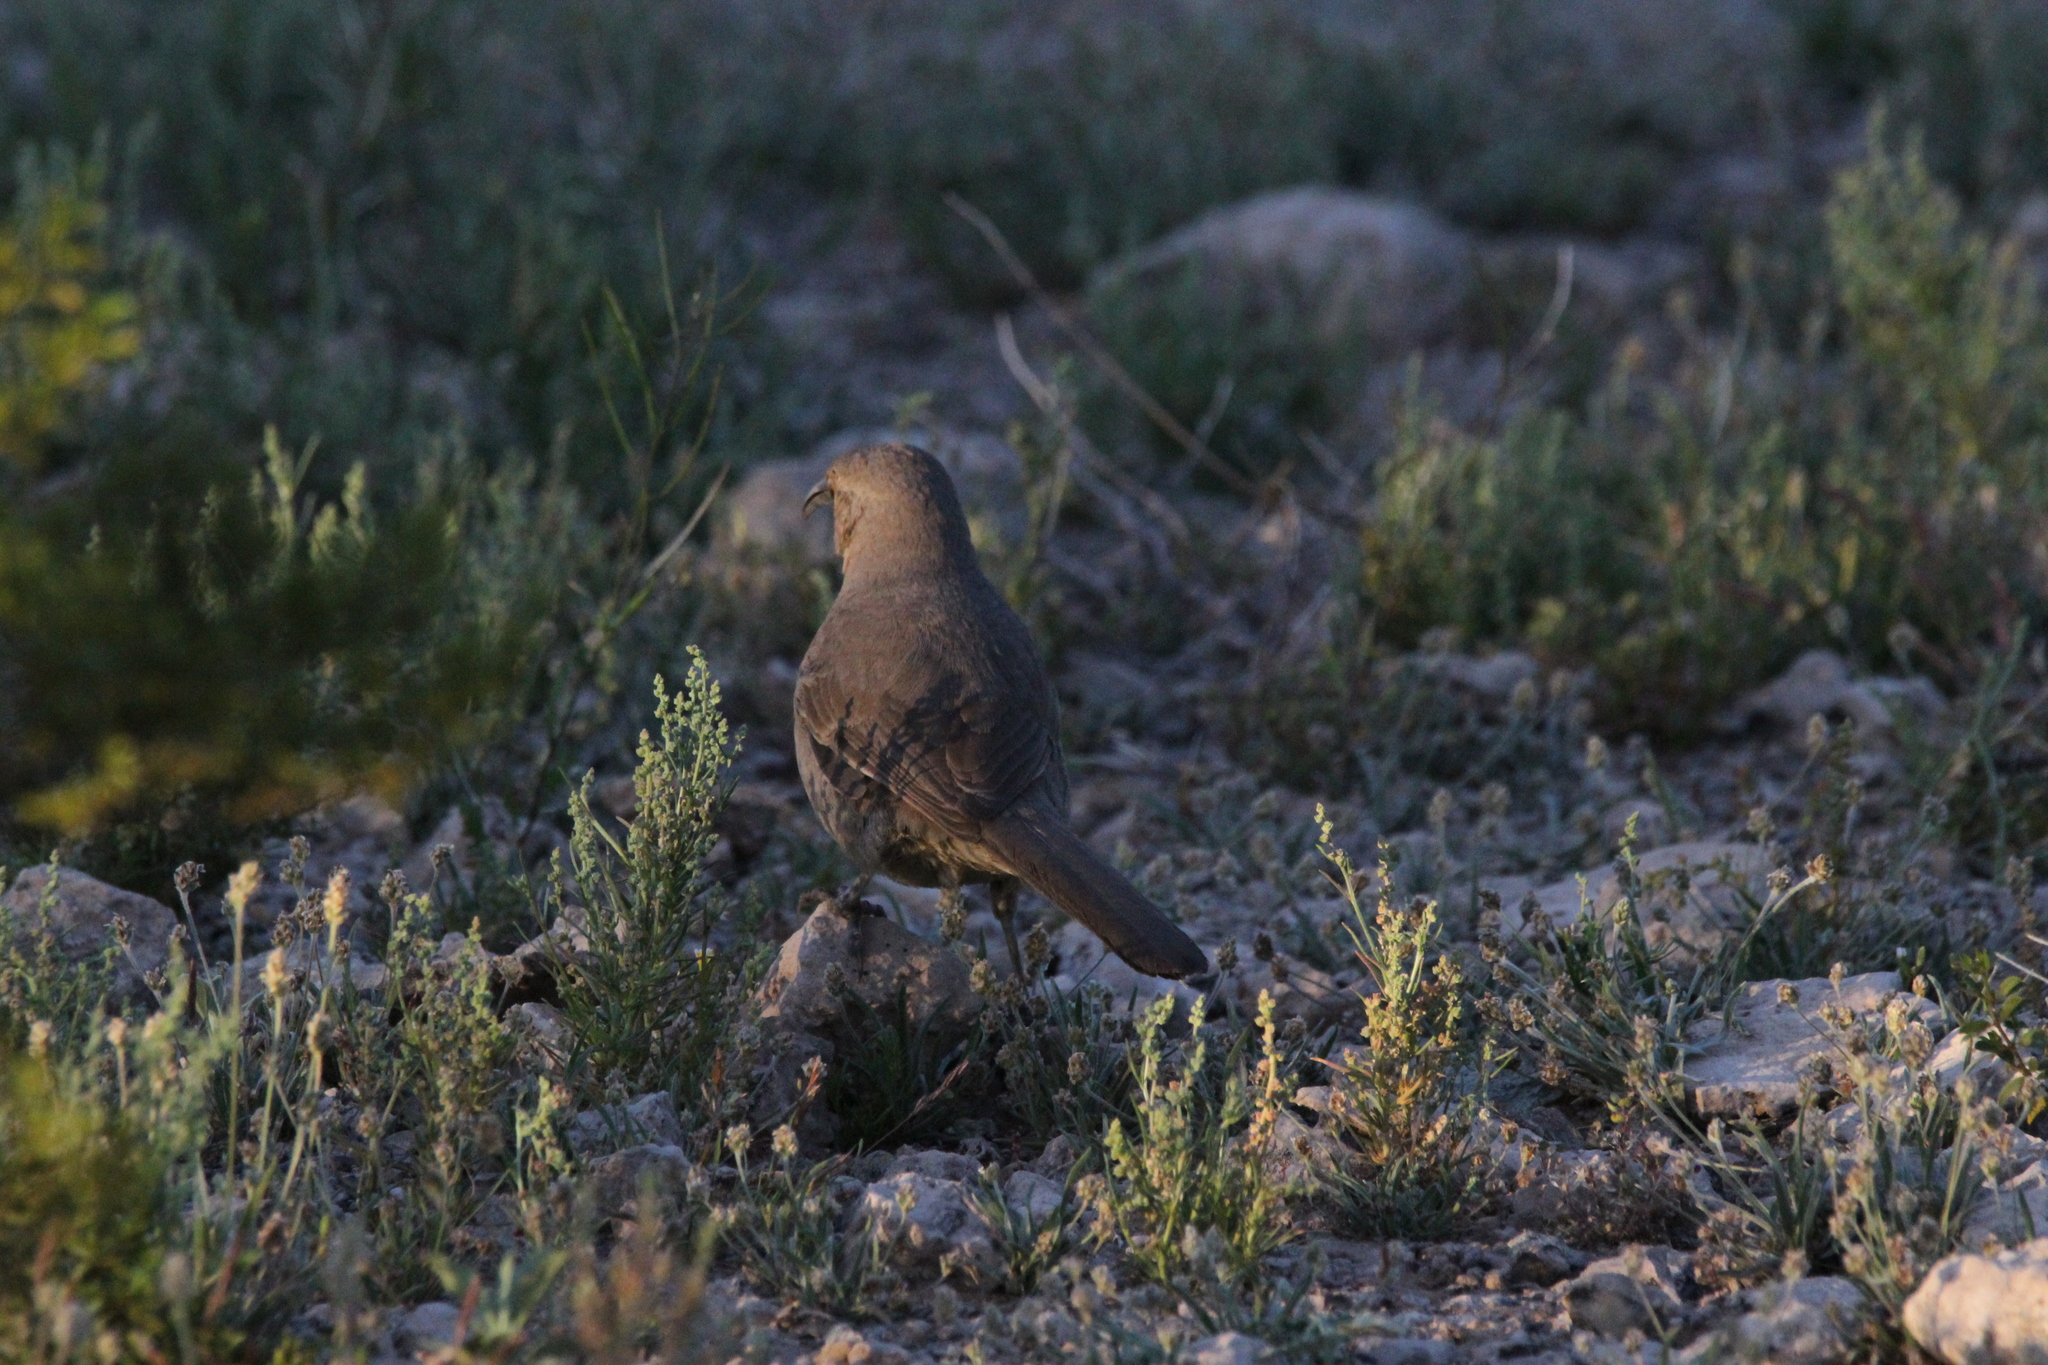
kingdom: Animalia
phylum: Chordata
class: Aves
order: Passeriformes
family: Mimidae
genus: Toxostoma
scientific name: Toxostoma curvirostre
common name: Curve-billed thrasher
